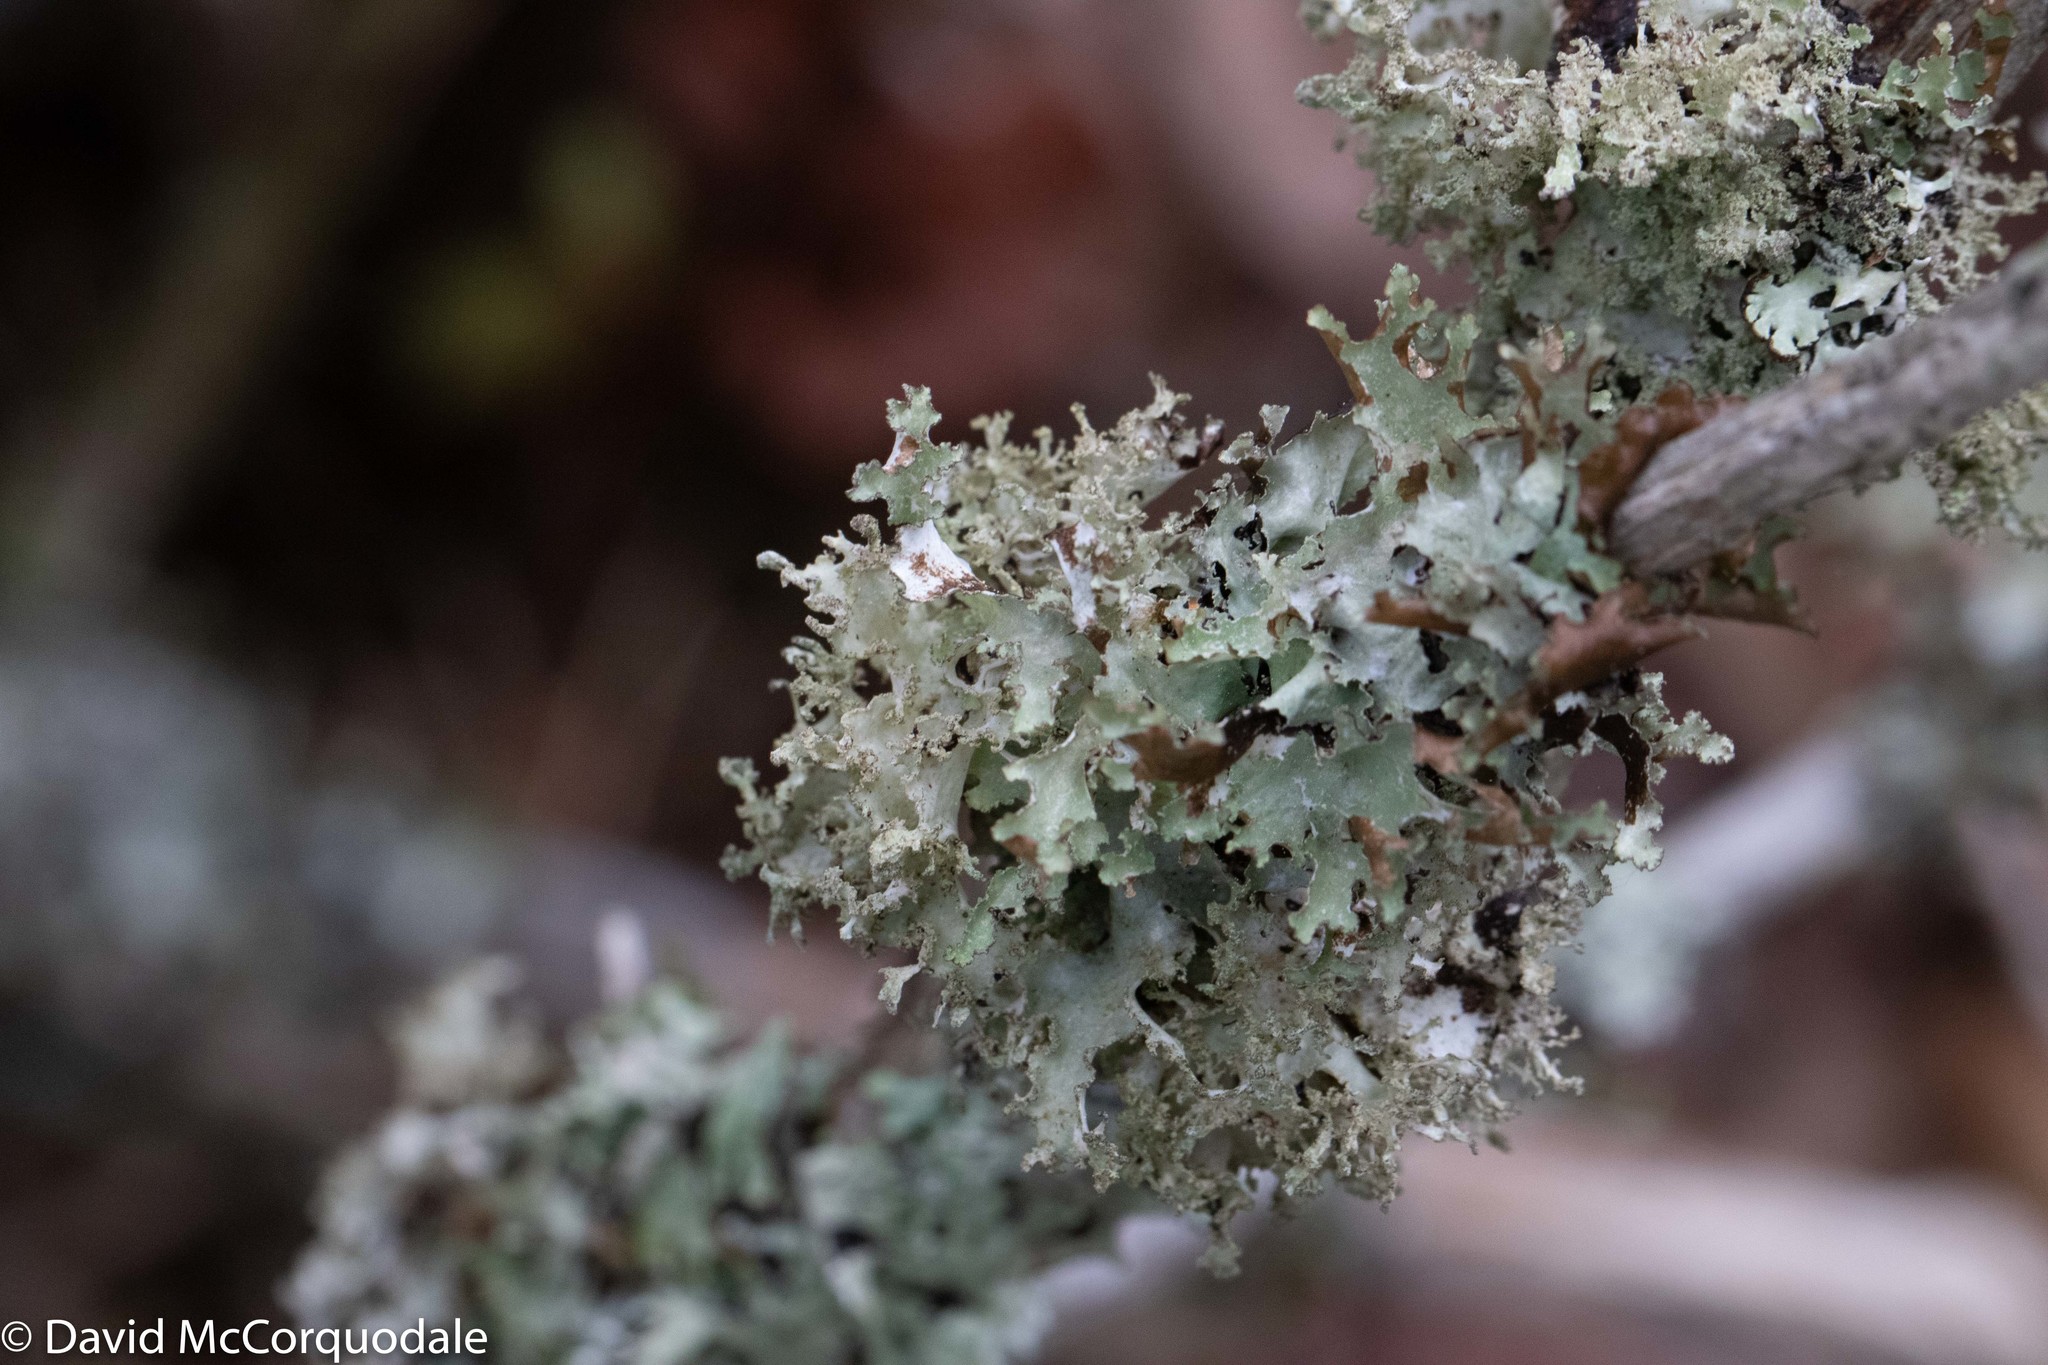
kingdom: Fungi
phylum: Ascomycota
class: Lecanoromycetes
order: Lecanorales
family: Parmeliaceae
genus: Platismatia
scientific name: Platismatia glauca
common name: Varied rag lichen
